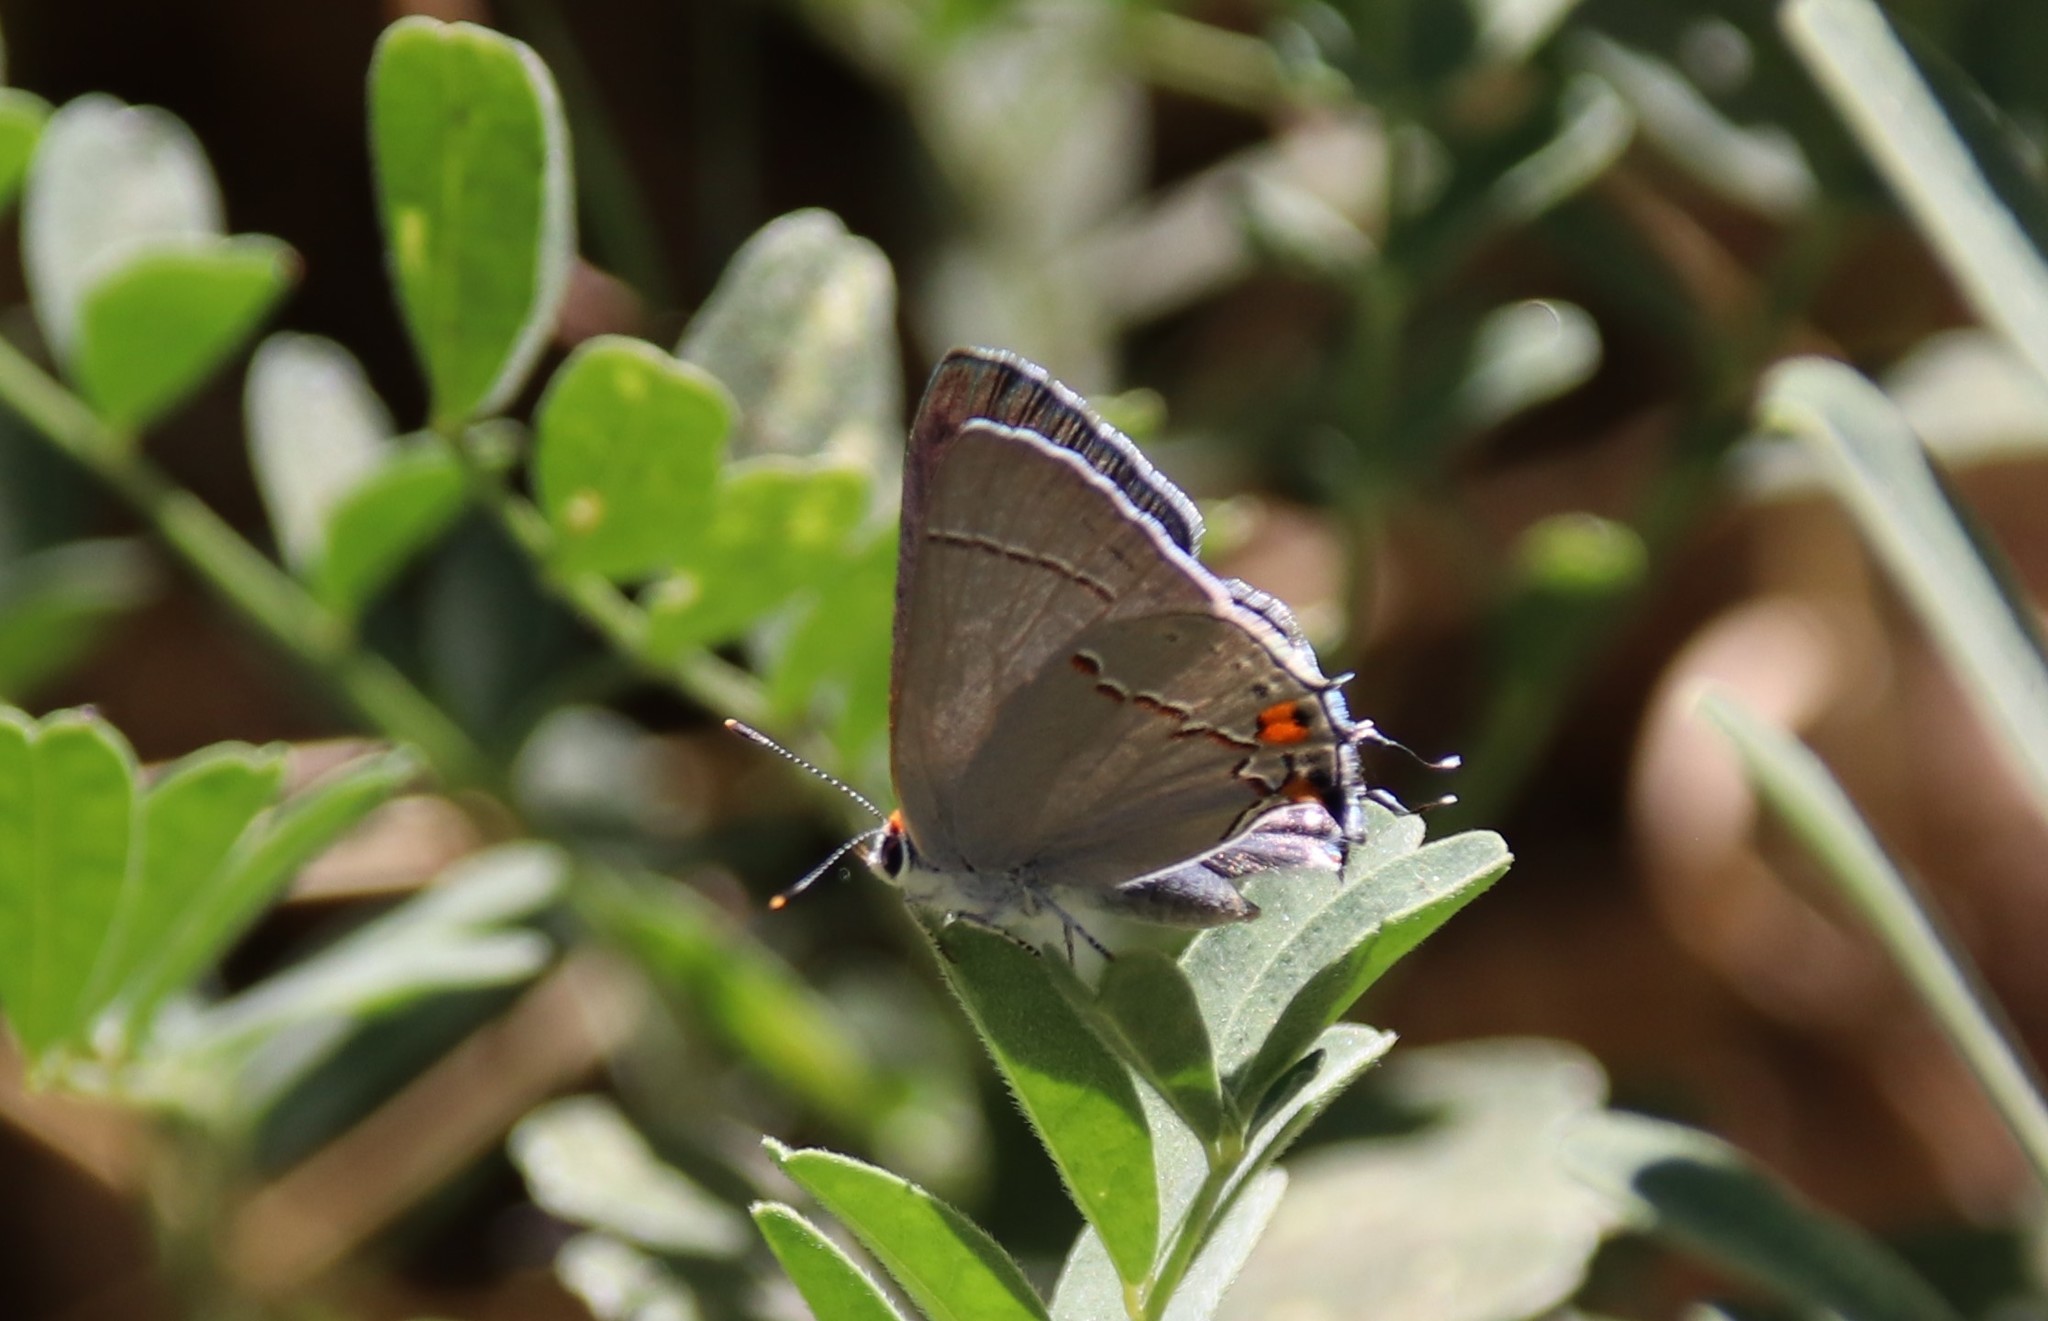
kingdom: Animalia
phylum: Arthropoda
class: Insecta
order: Lepidoptera
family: Lycaenidae
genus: Strymon
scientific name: Strymon melinus
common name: Gray hairstreak
